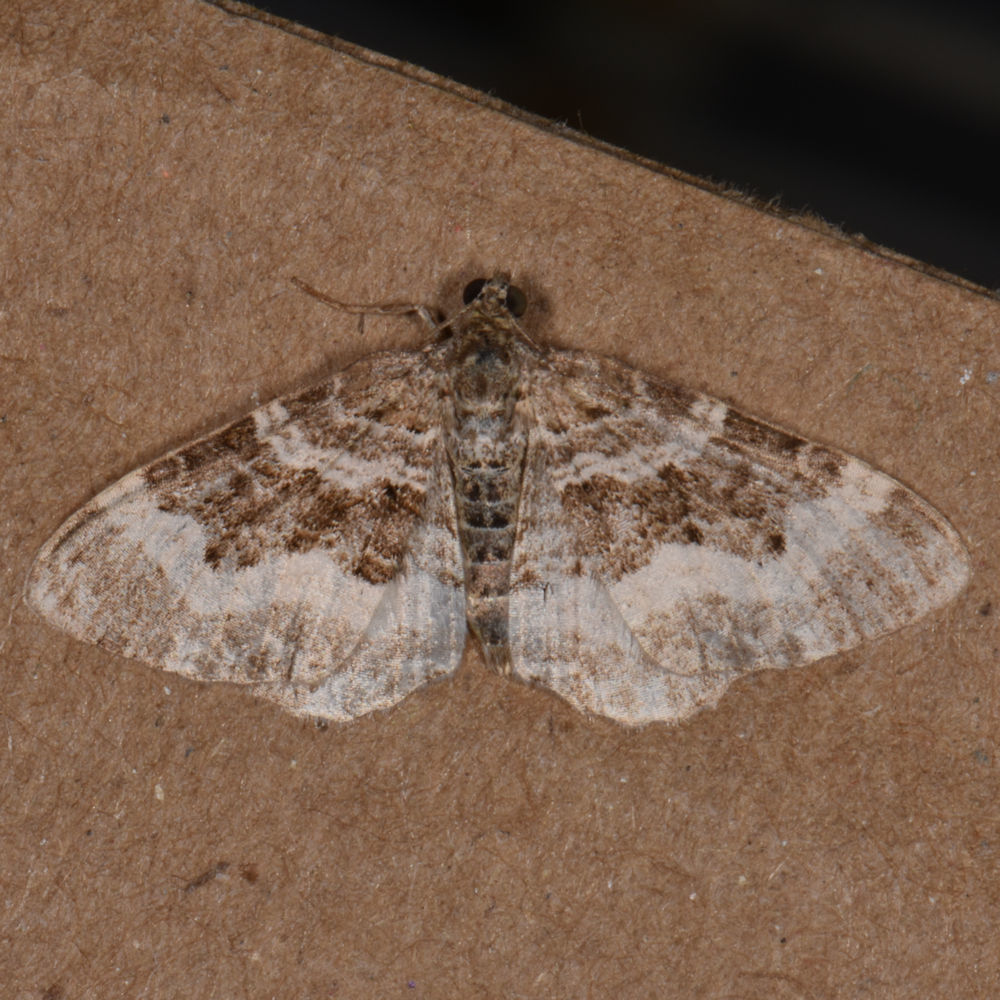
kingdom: Animalia
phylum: Arthropoda
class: Insecta
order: Lepidoptera
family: Geometridae
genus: Epirrhoe
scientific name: Epirrhoe alternata
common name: Common carpet
